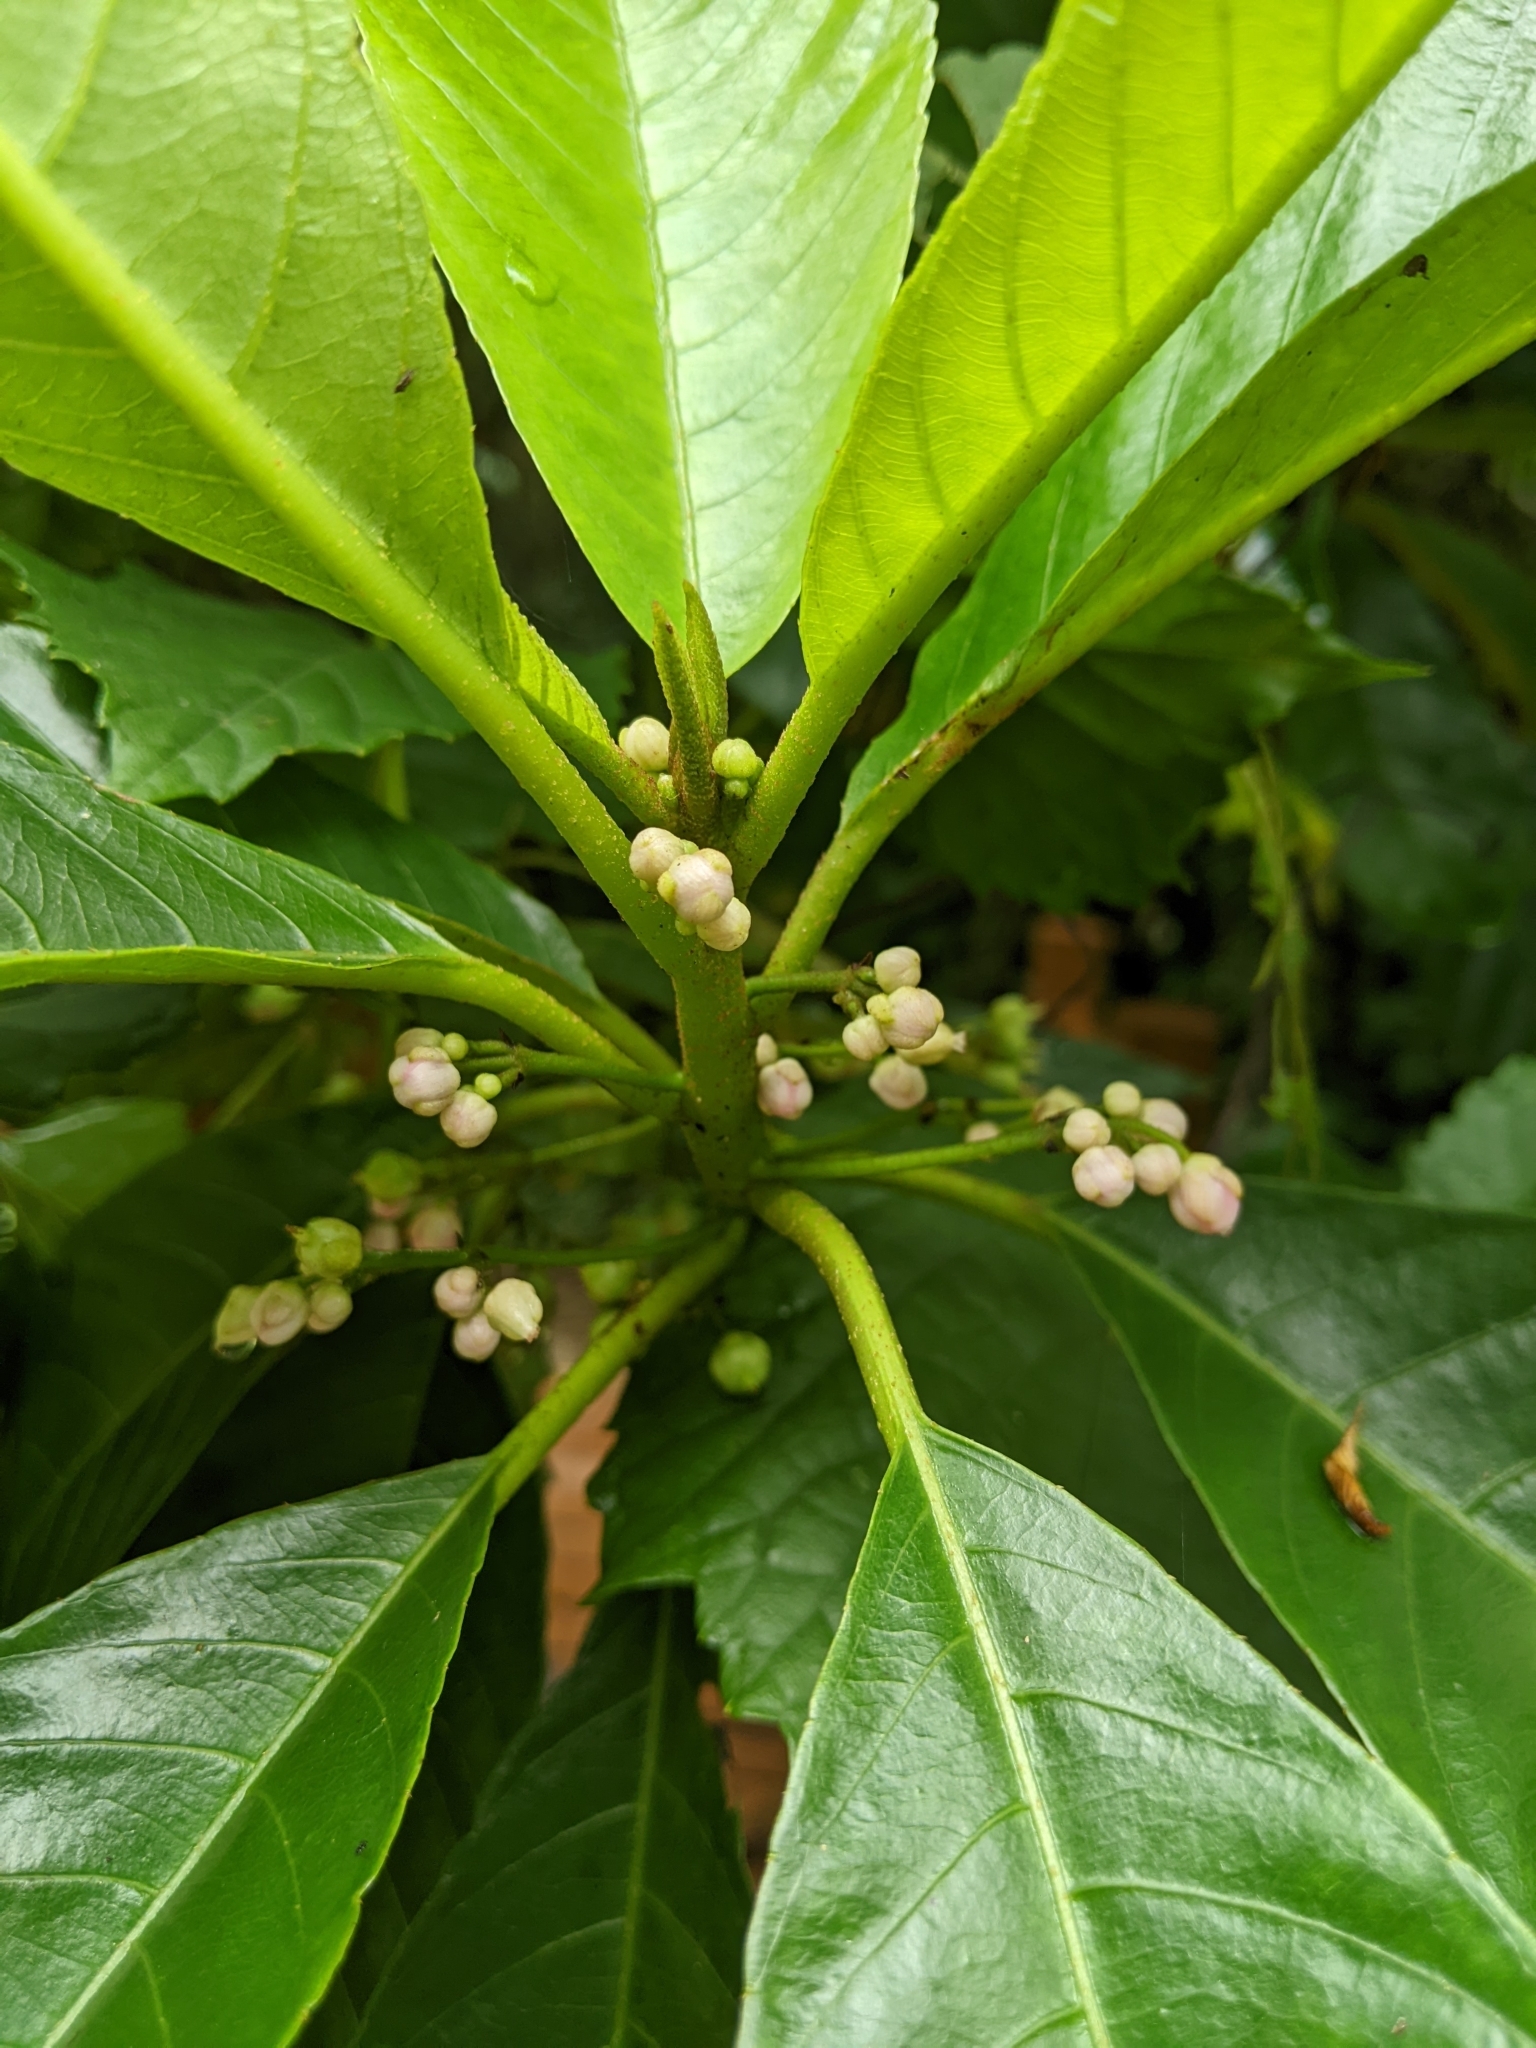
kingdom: Plantae
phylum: Tracheophyta
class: Magnoliopsida
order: Ericales
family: Actinidiaceae
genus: Saurauia
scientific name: Saurauia tristyla
